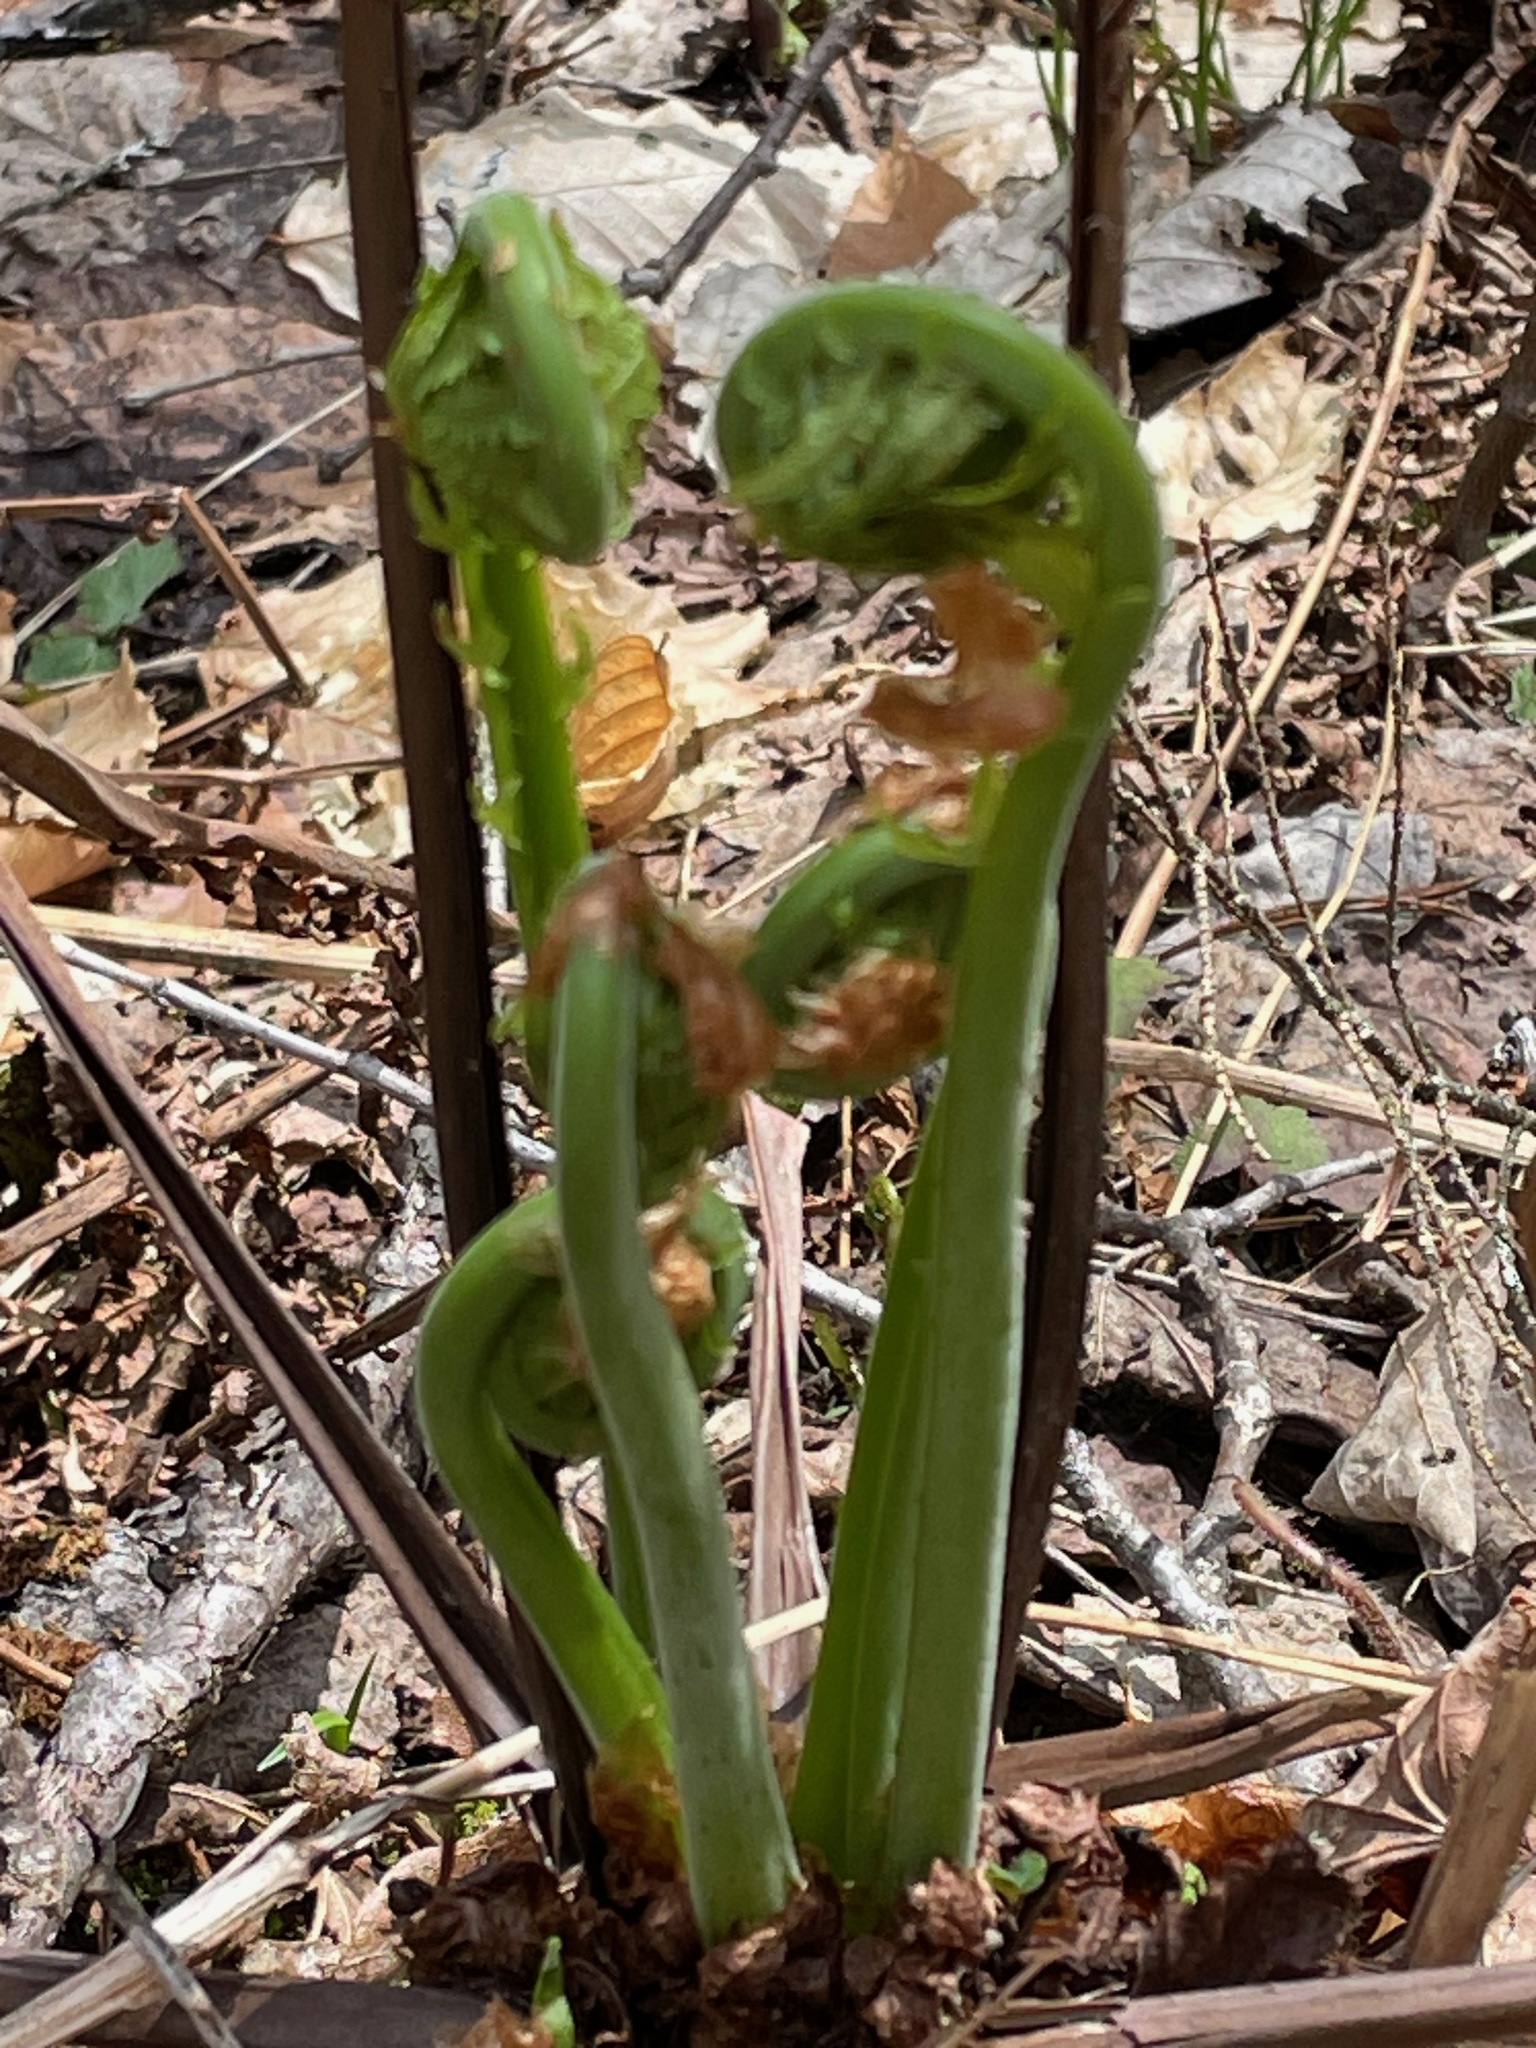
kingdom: Plantae
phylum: Tracheophyta
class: Polypodiopsida
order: Polypodiales
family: Onocleaceae
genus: Matteuccia
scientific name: Matteuccia struthiopteris
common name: Ostrich fern
